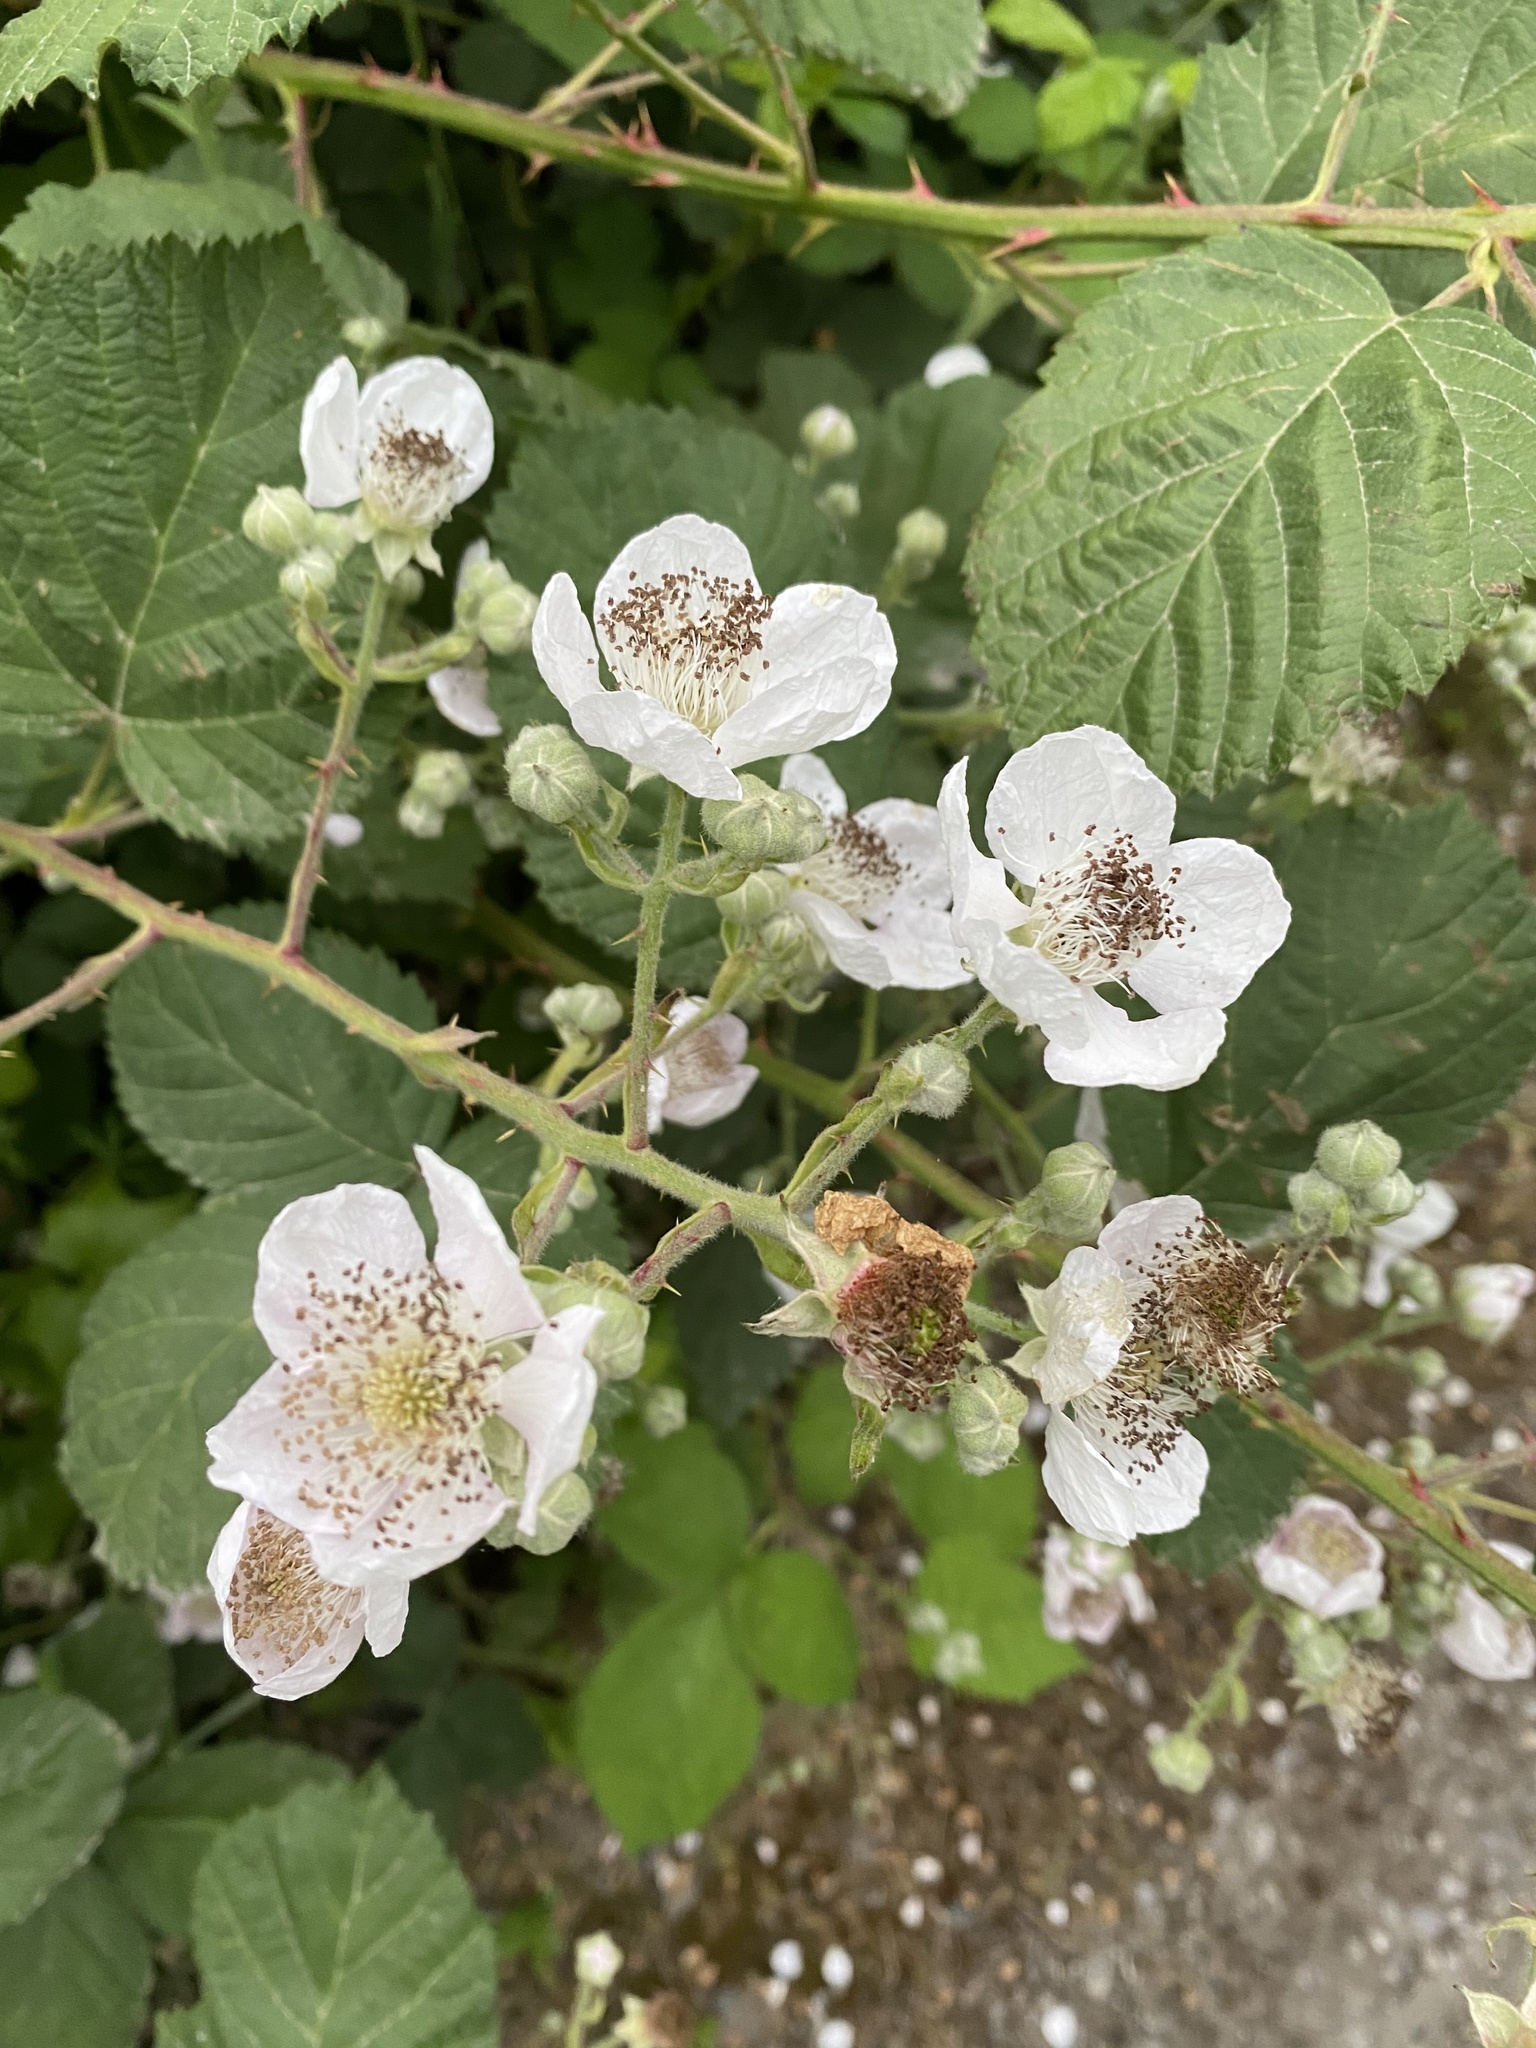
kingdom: Plantae
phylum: Tracheophyta
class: Magnoliopsida
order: Rosales
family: Rosaceae
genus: Rubus
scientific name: Rubus bifrons
